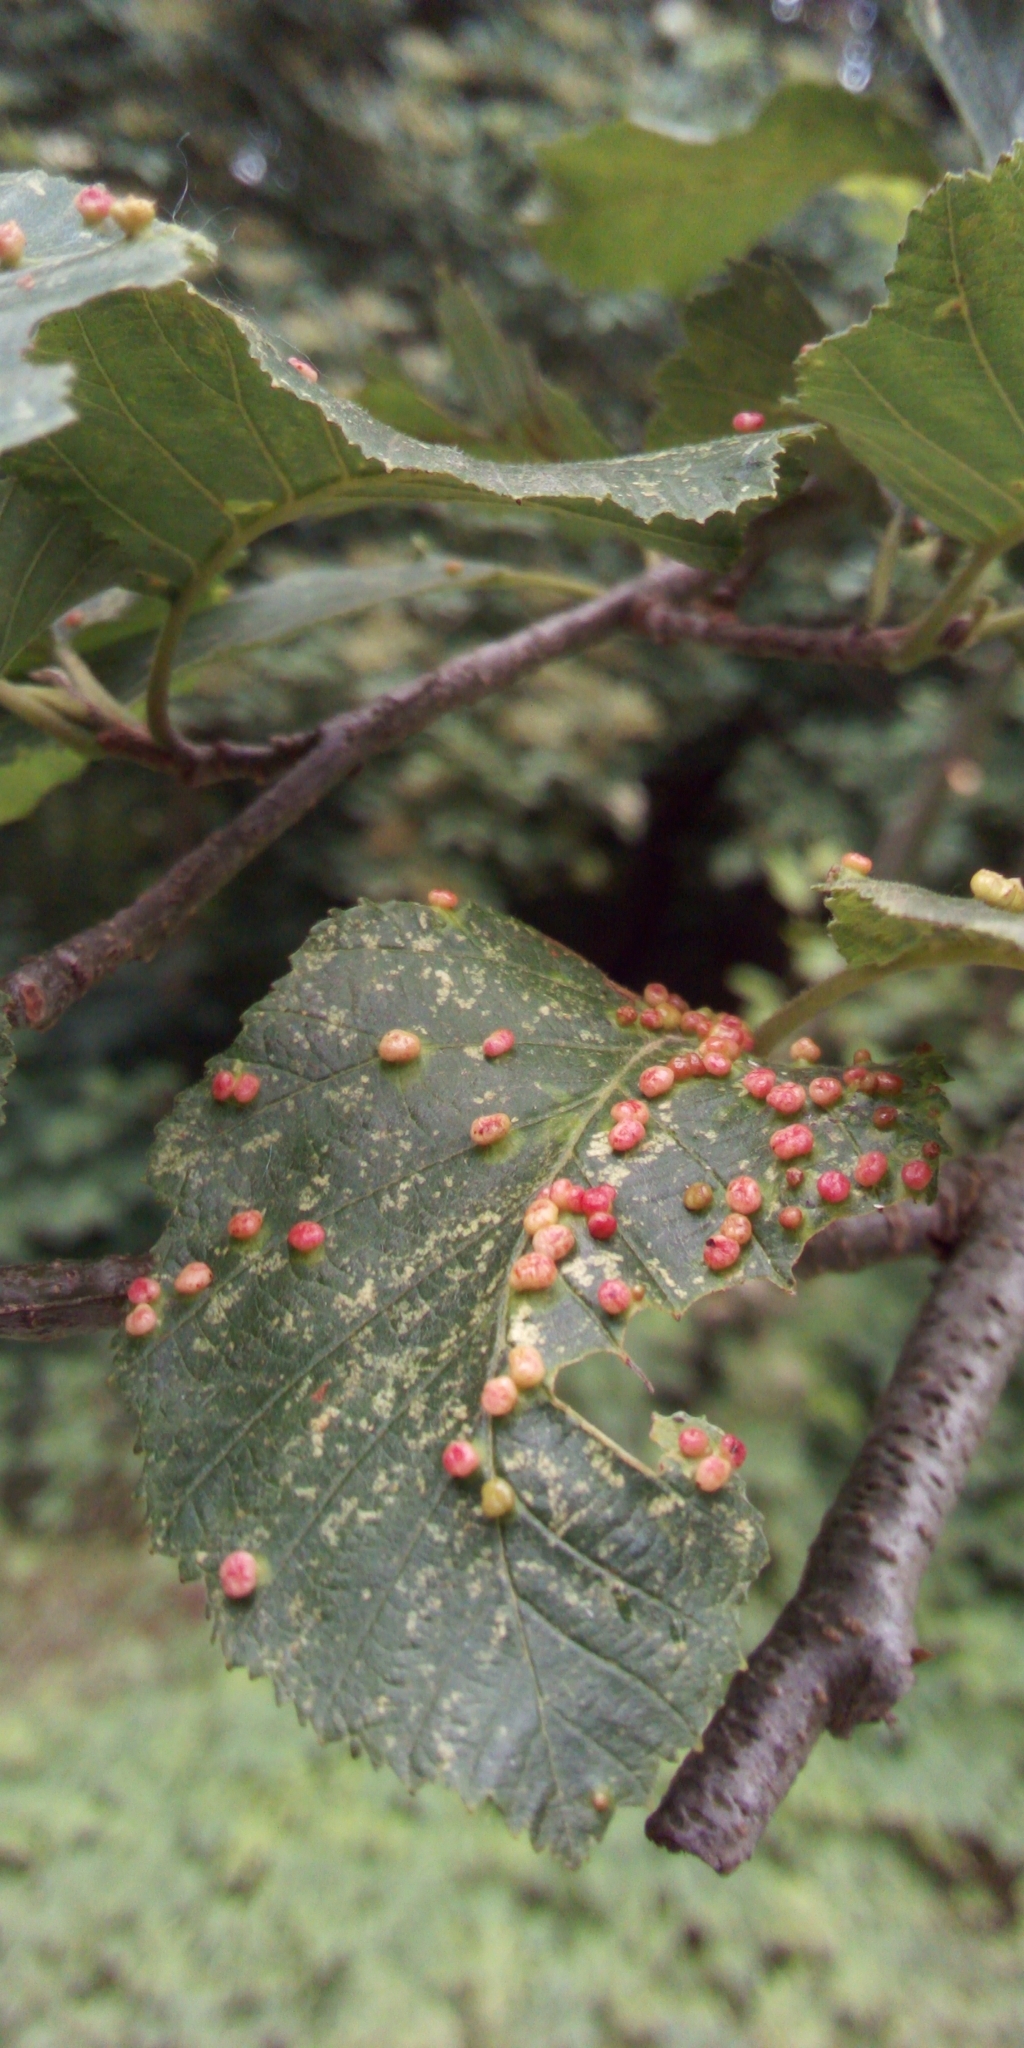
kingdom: Animalia
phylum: Arthropoda
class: Arachnida
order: Trombidiformes
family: Eriophyidae
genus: Eriophyes
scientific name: Eriophyes laevis
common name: Alder leaf gall mite
